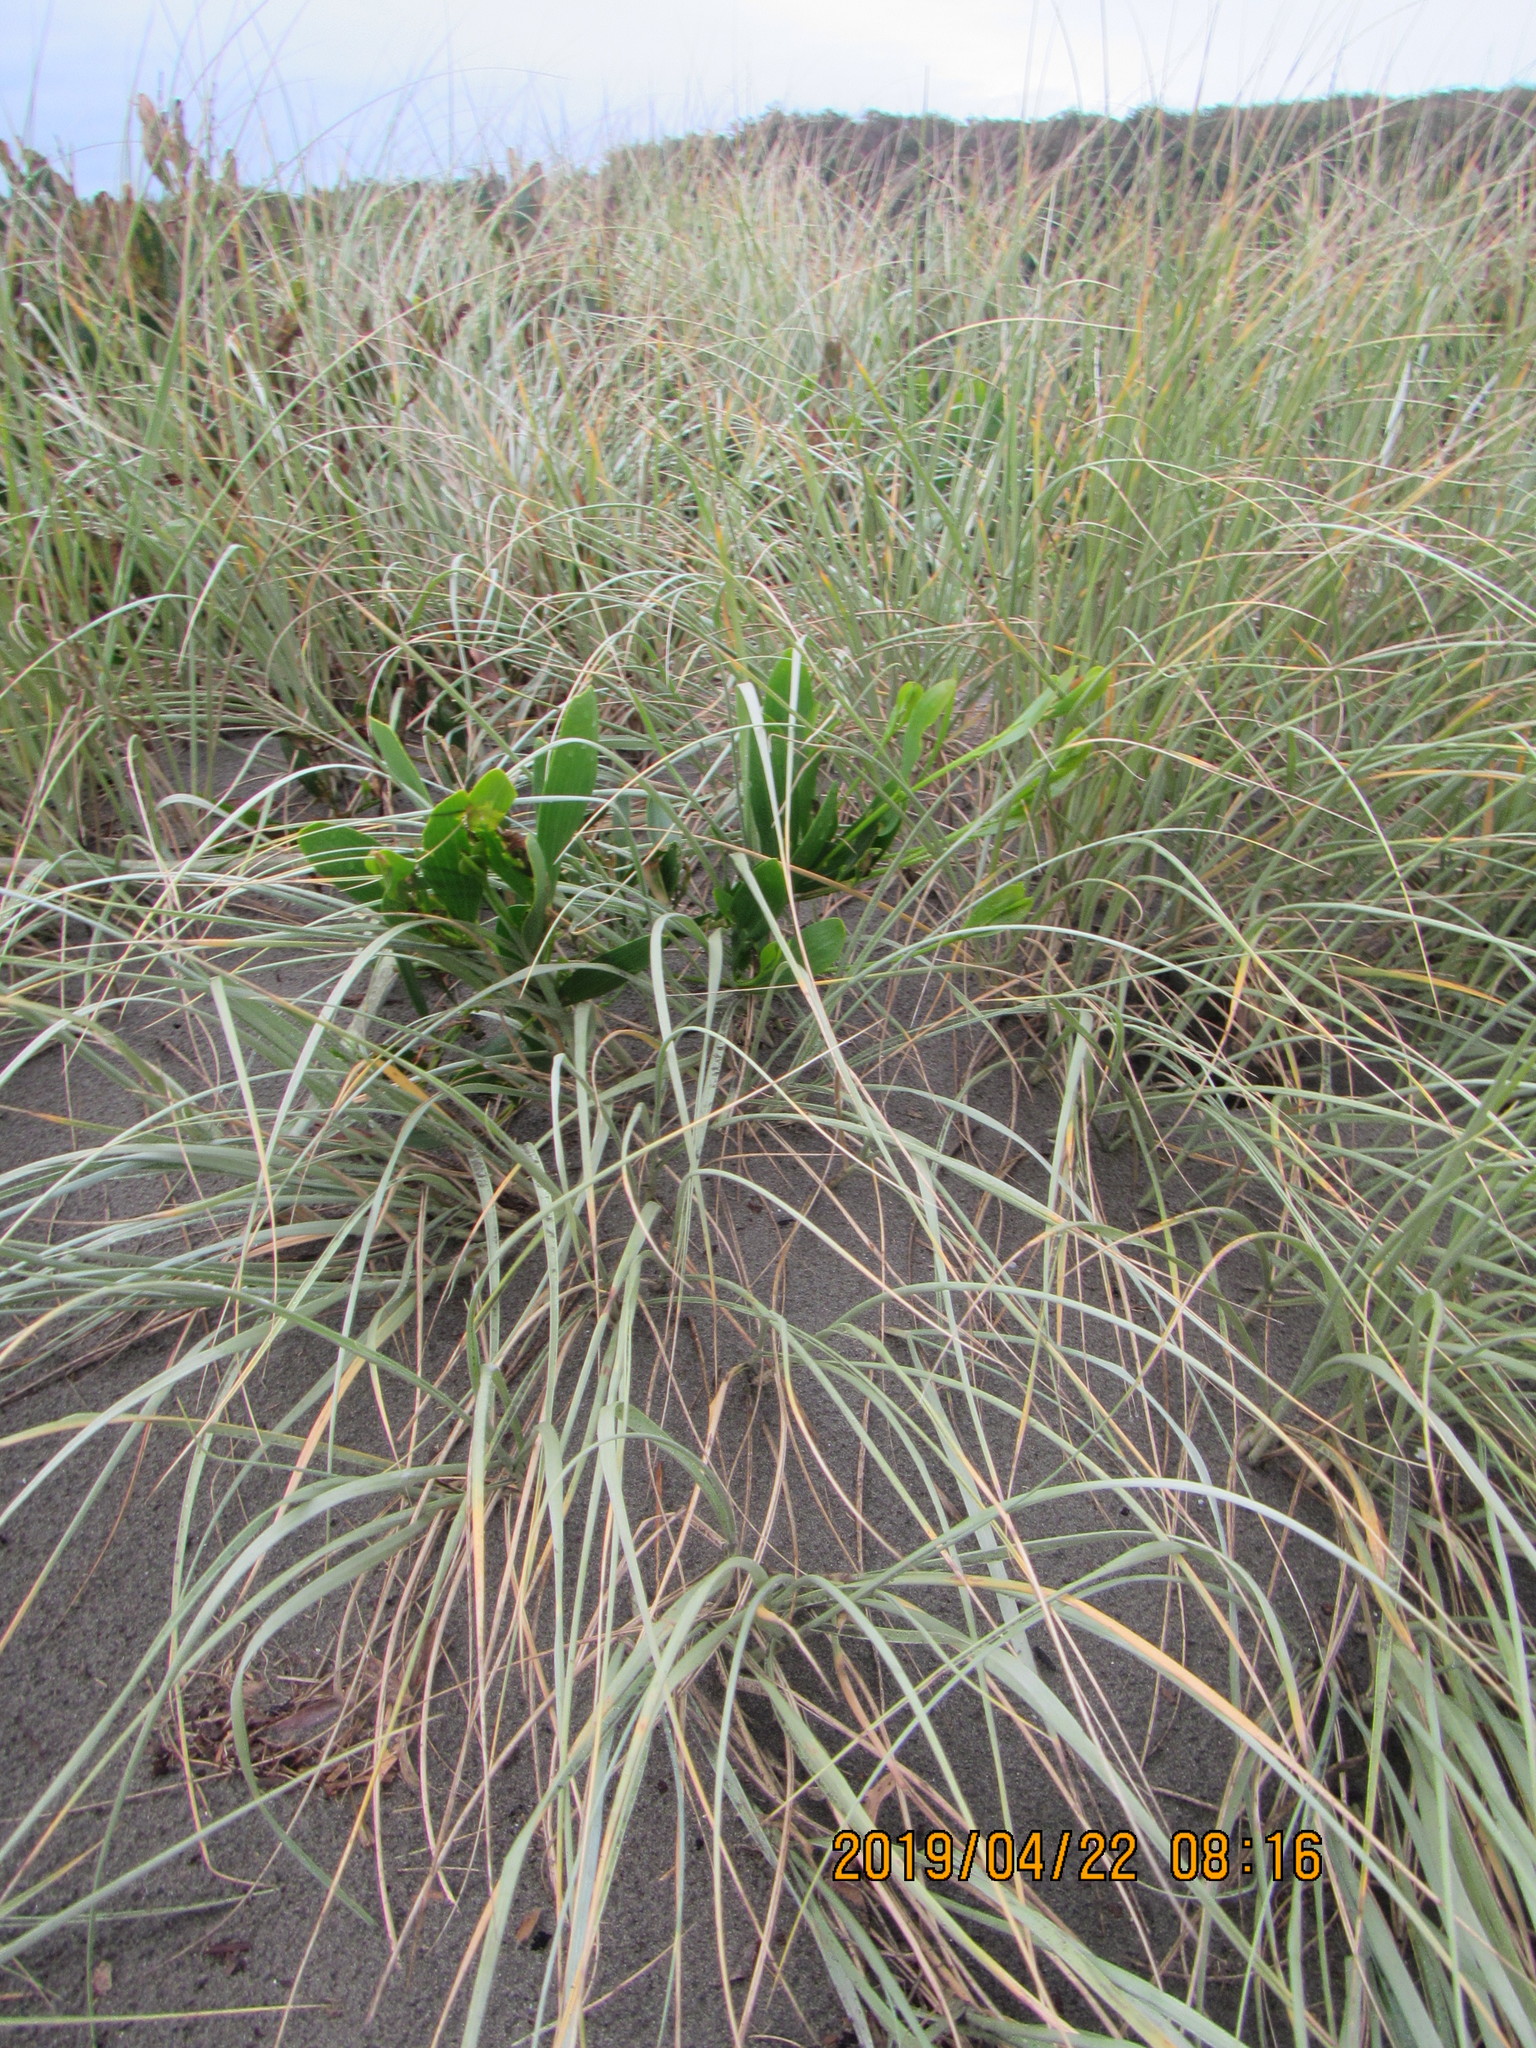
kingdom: Plantae
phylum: Tracheophyta
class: Liliopsida
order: Poales
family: Poaceae
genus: Spinifex
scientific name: Spinifex sericeus
